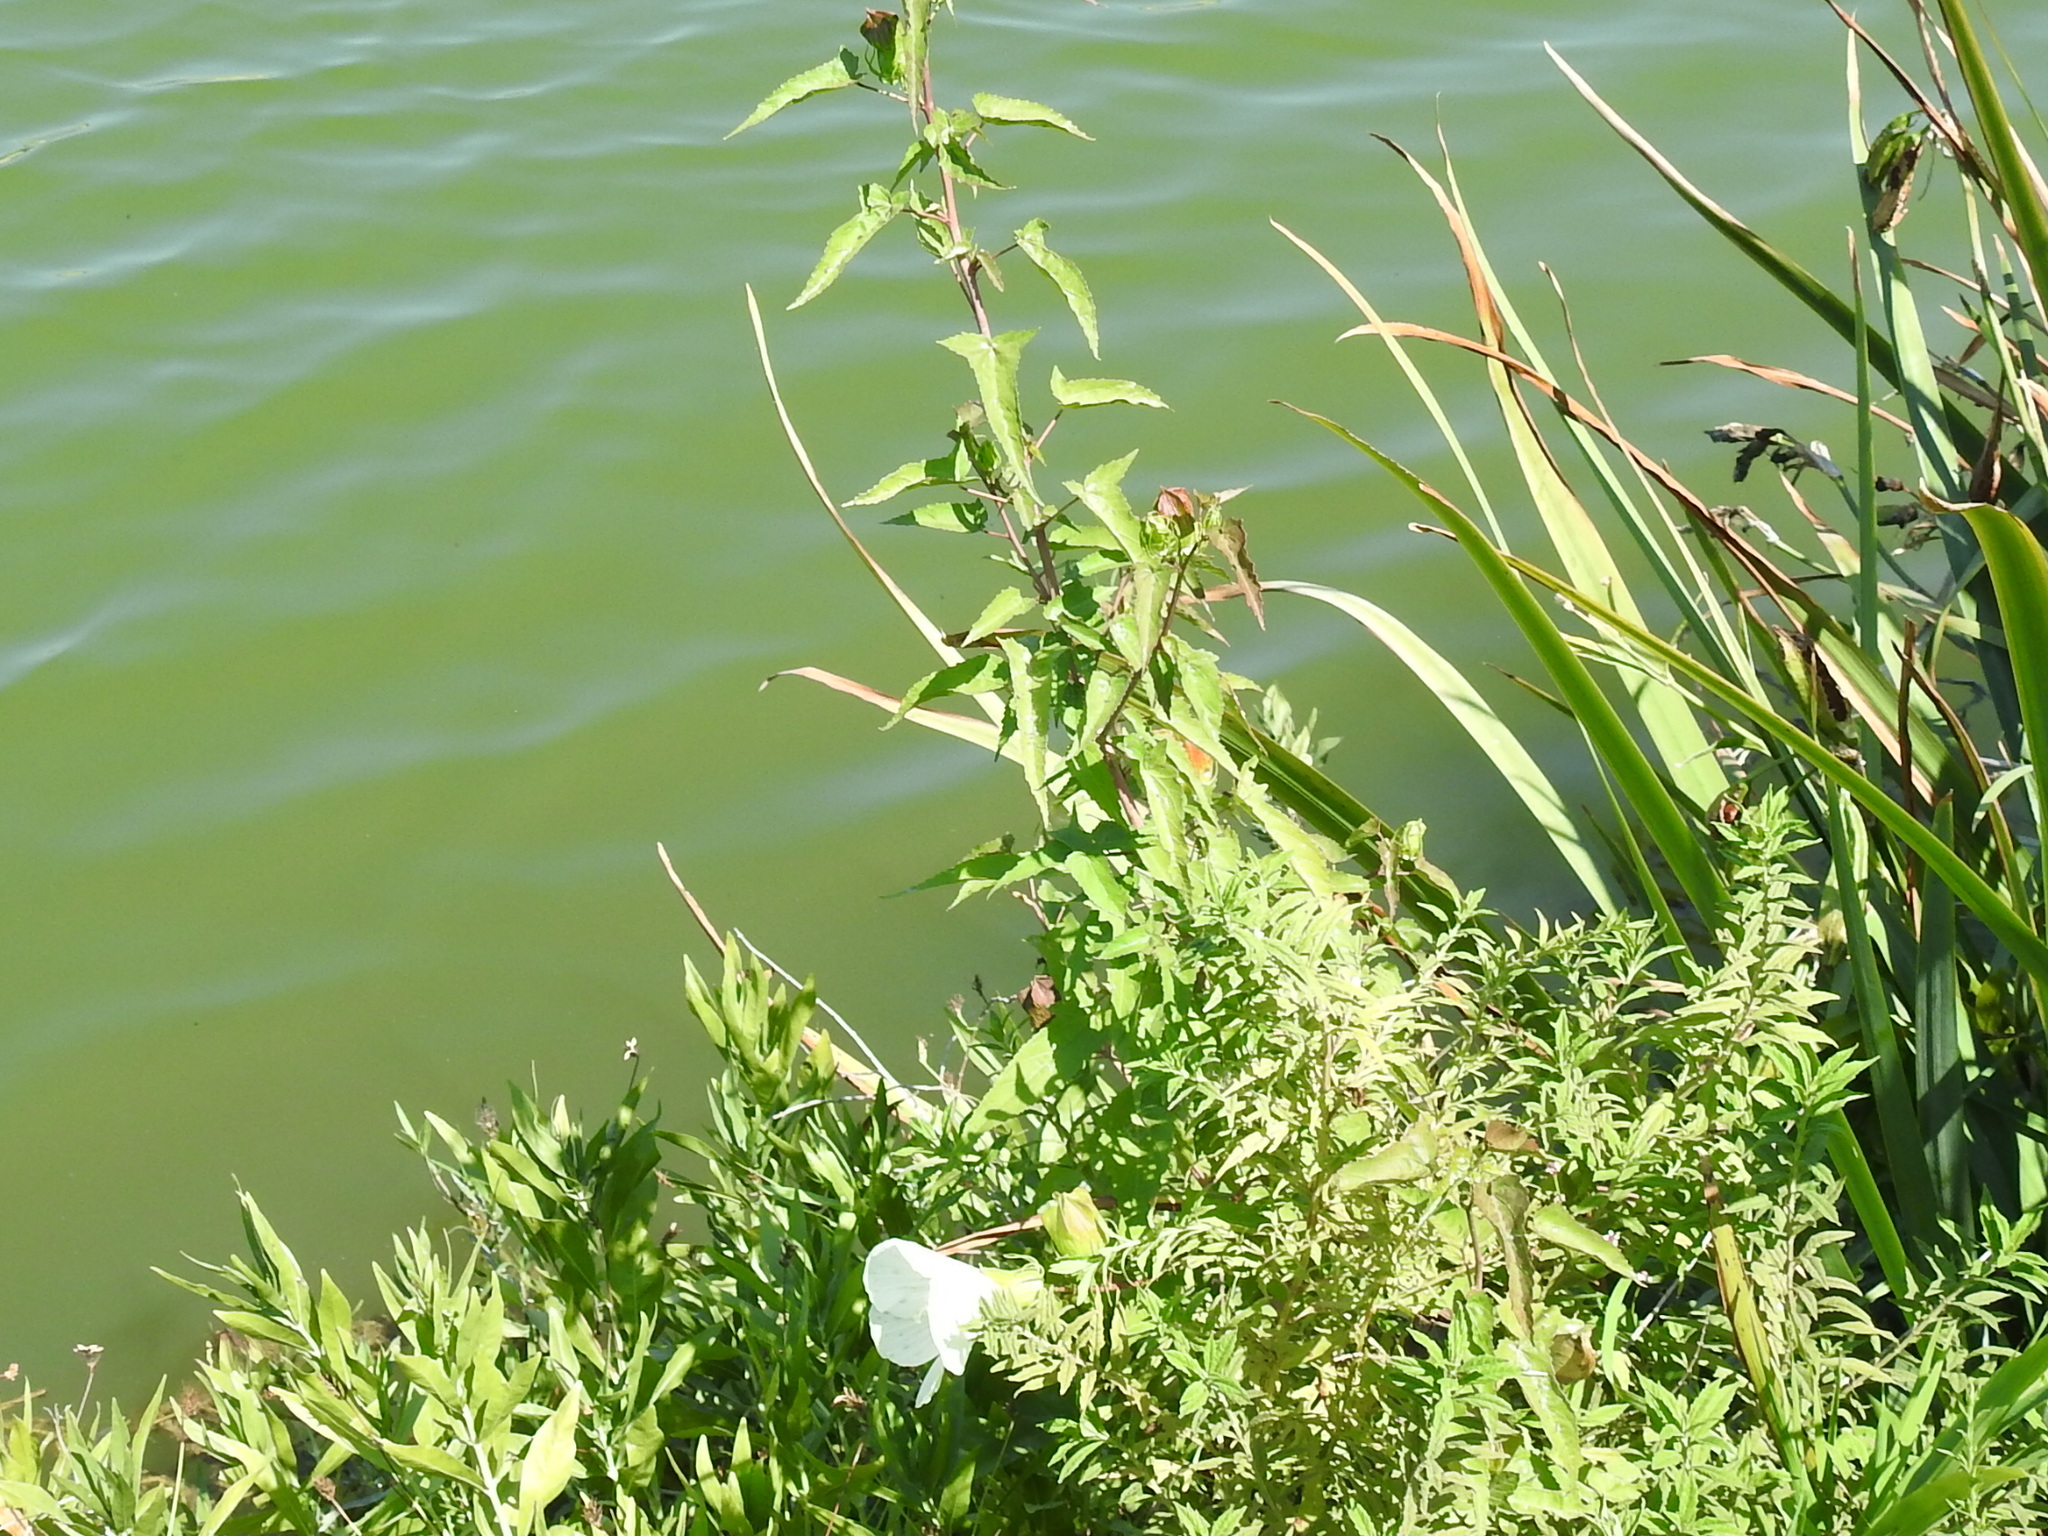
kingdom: Plantae
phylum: Tracheophyta
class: Magnoliopsida
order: Malvales
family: Malvaceae
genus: Hibiscus
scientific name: Hibiscus laevis
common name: Scarlet rose-mallow
